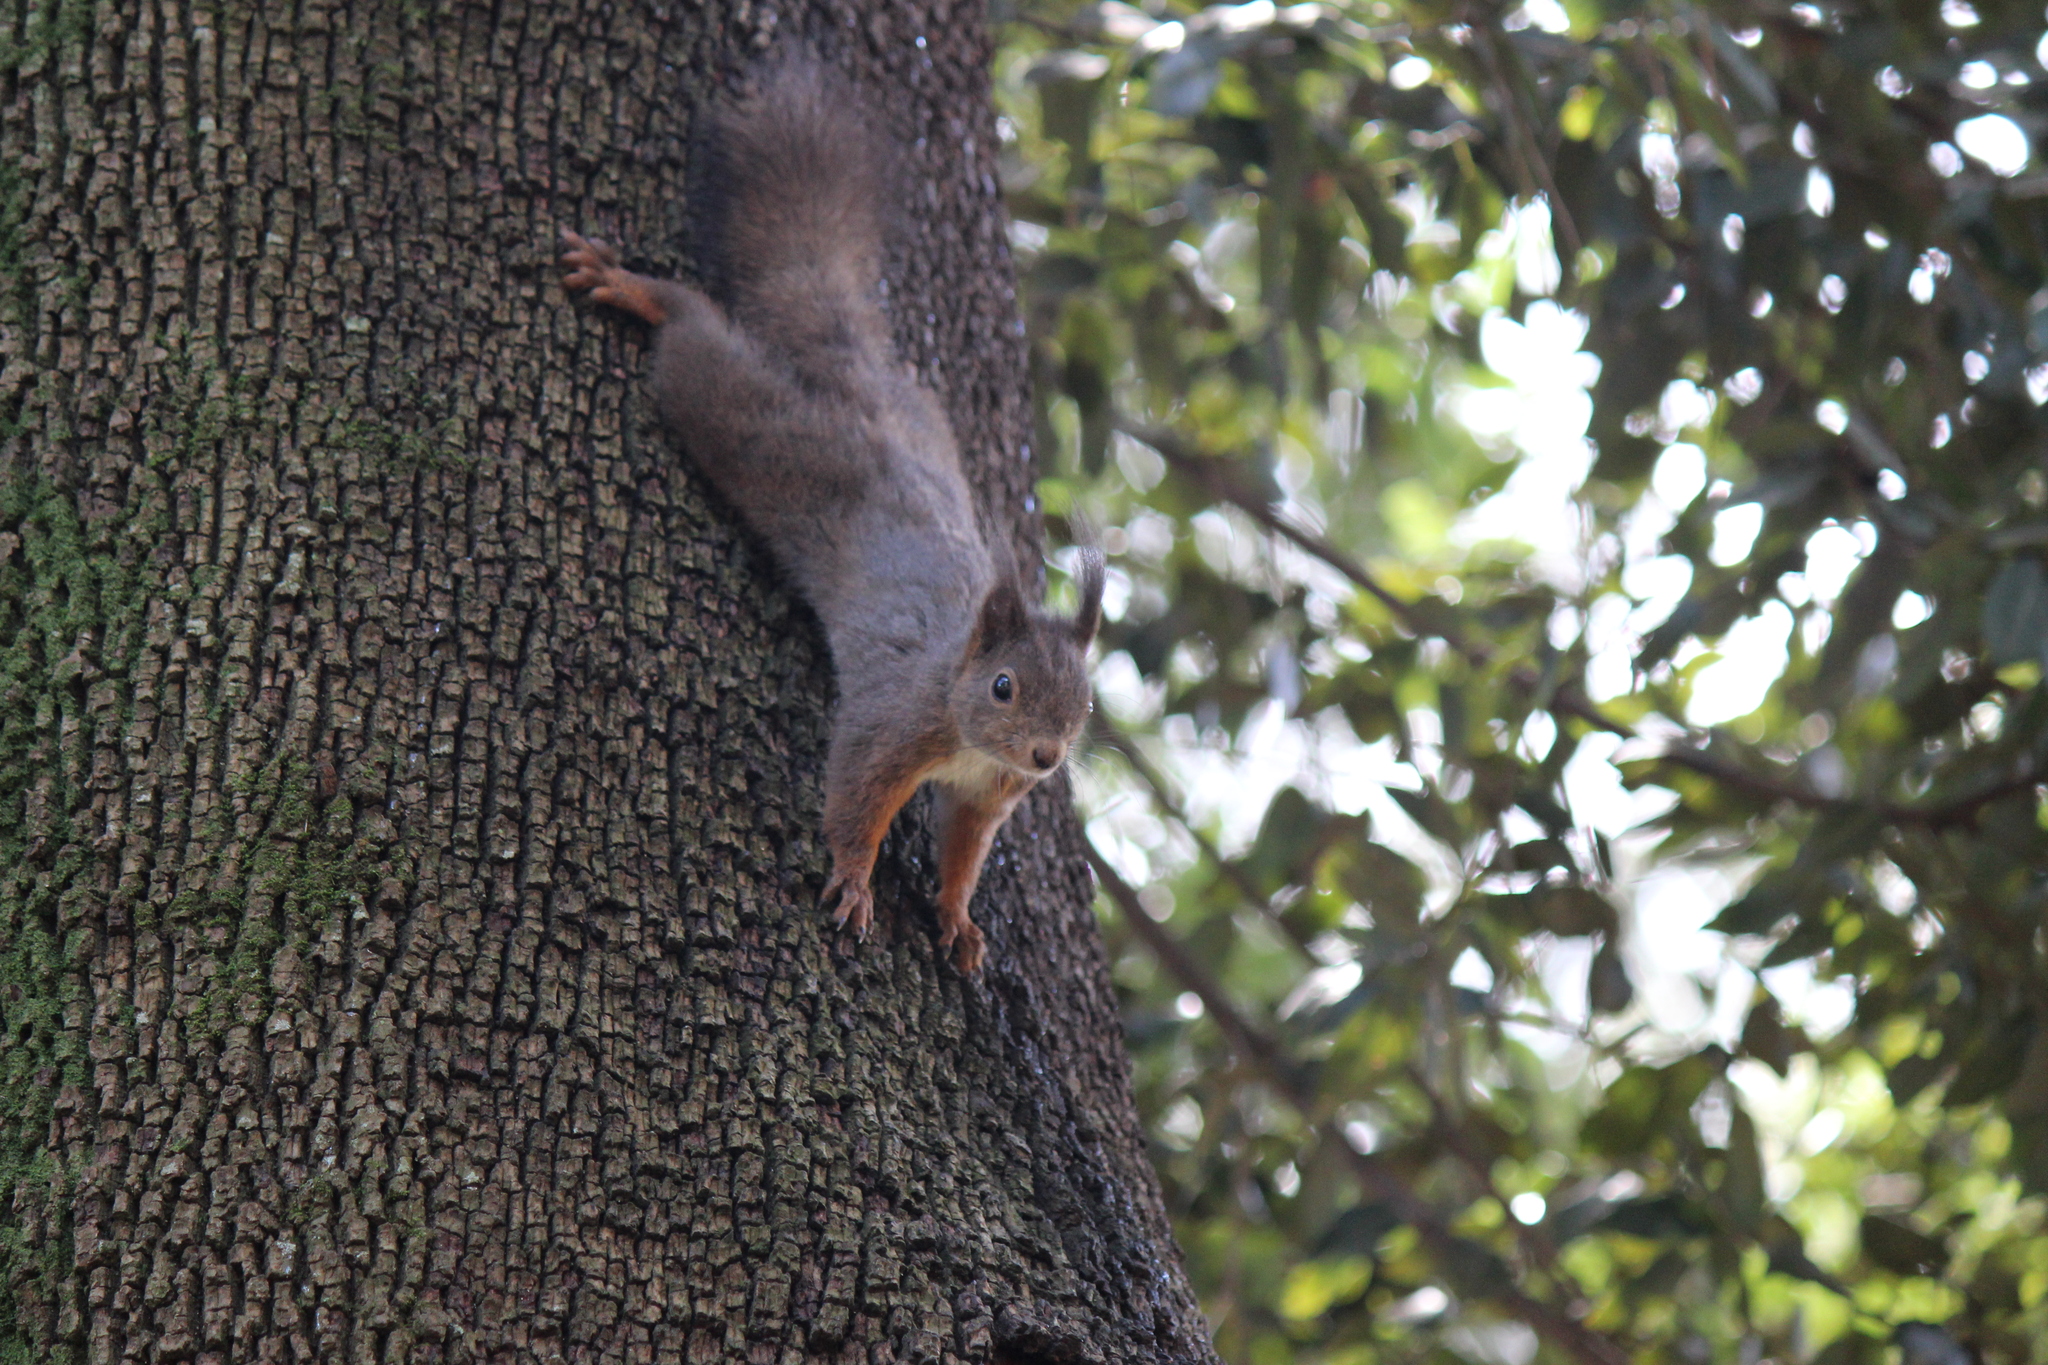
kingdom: Animalia
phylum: Chordata
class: Mammalia
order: Rodentia
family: Sciuridae
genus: Sciurus
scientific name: Sciurus vulgaris
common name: Eurasian red squirrel
